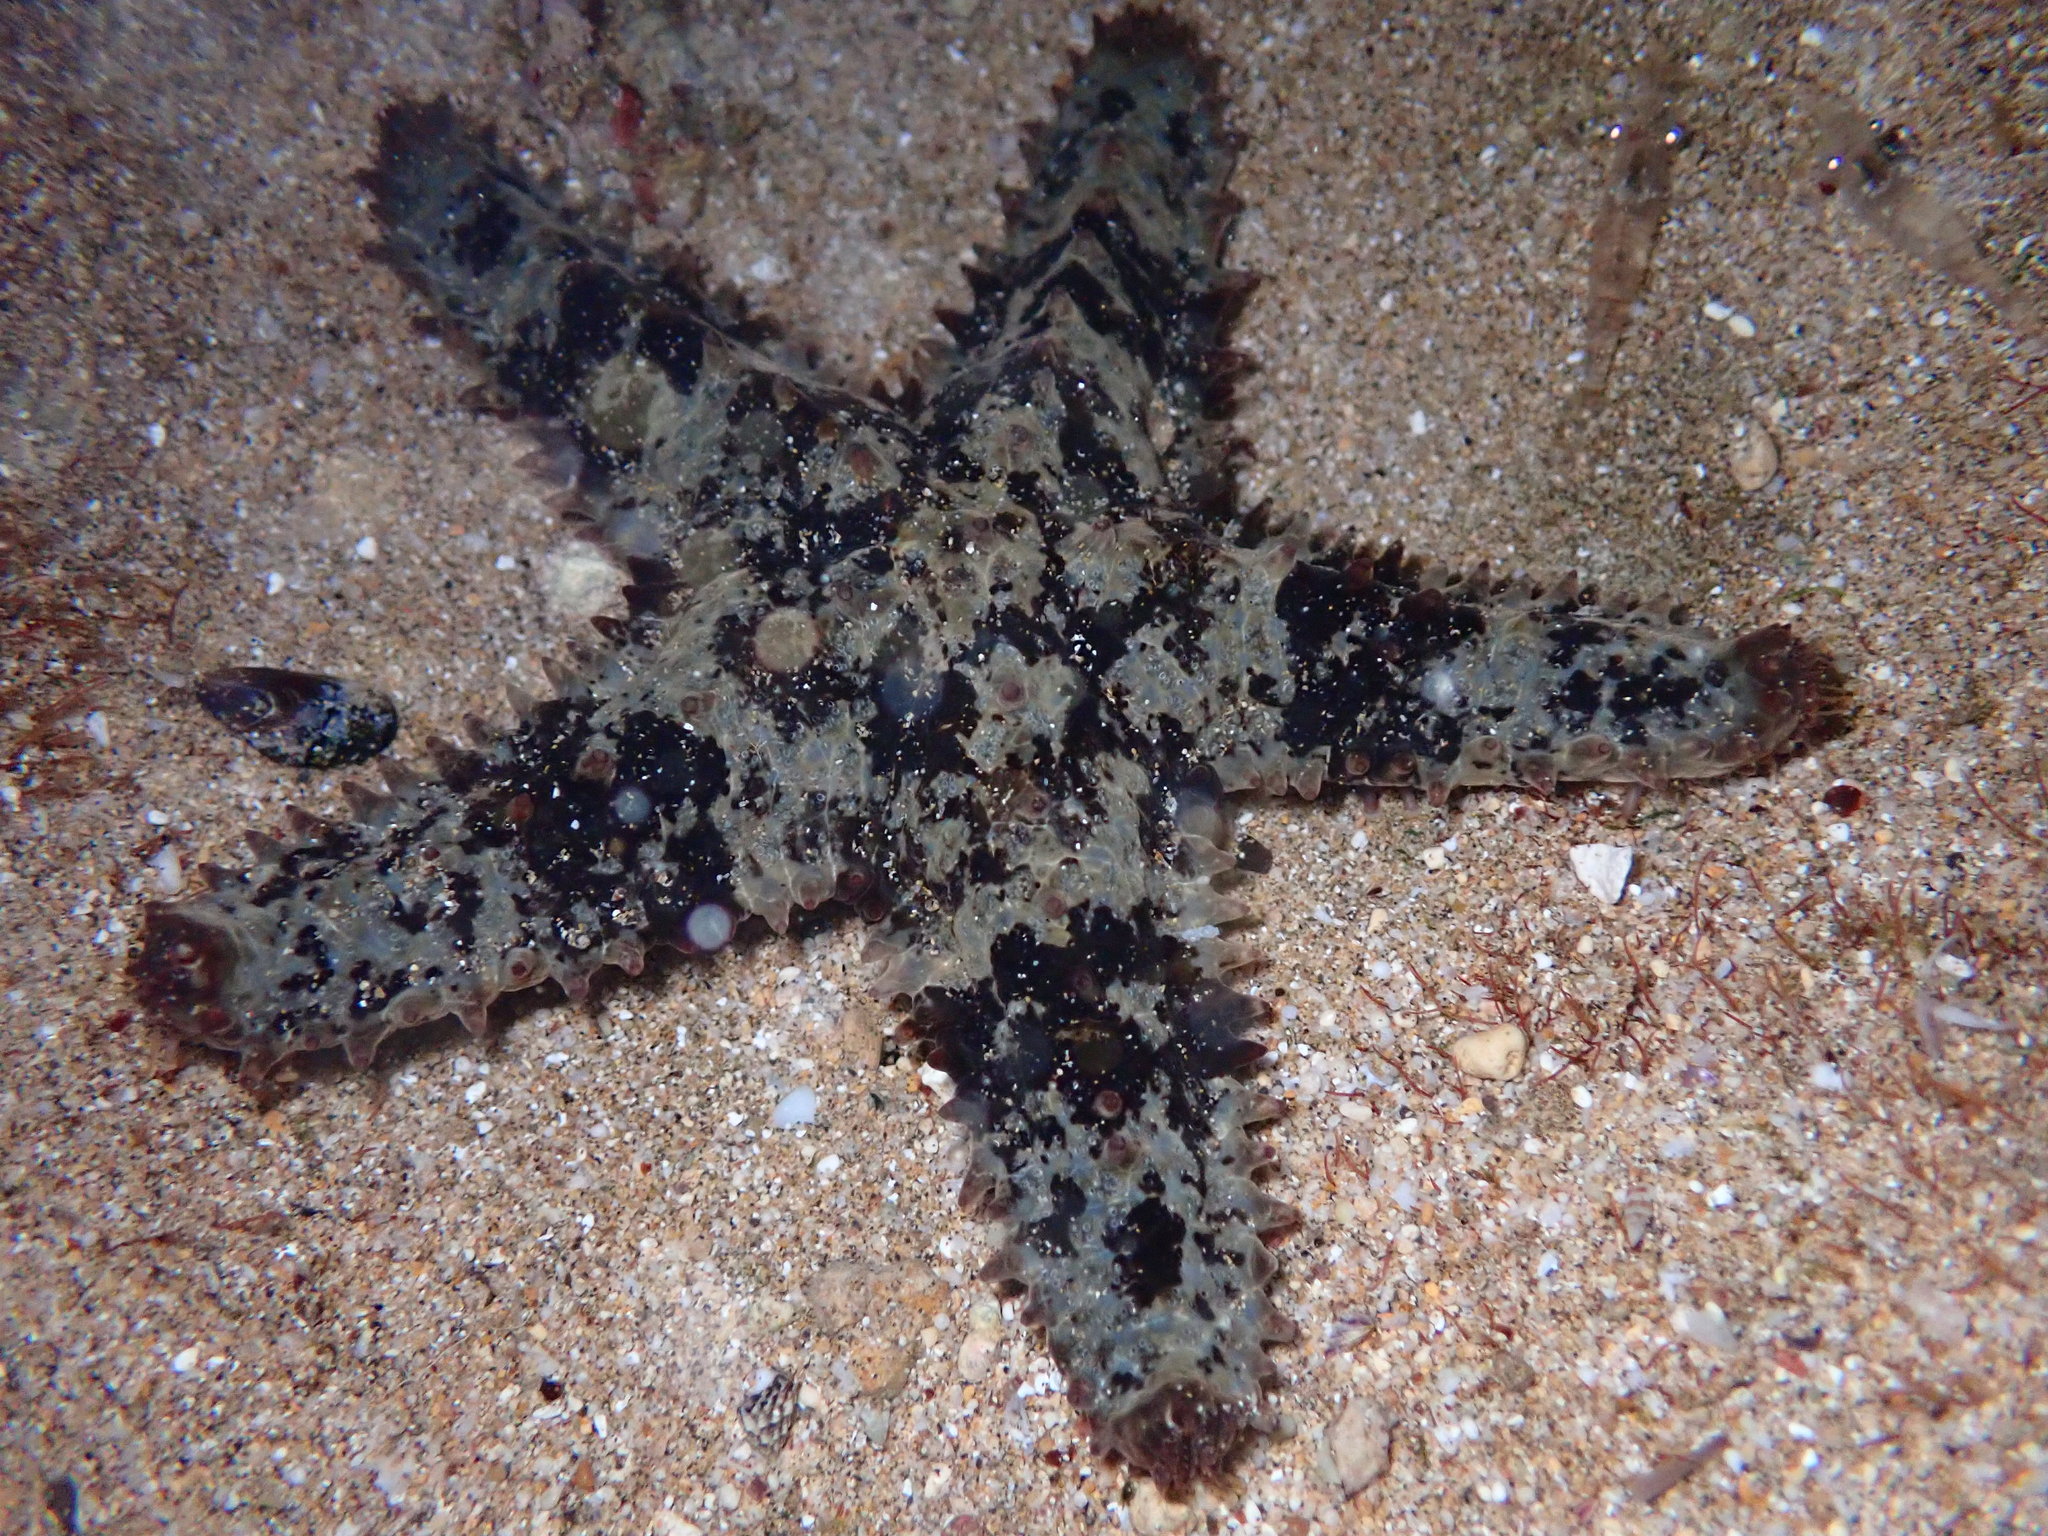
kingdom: Animalia
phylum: Echinodermata
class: Asteroidea
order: Valvatida
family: Asteropseidae
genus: Asteropsis
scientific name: Asteropsis carinifera
